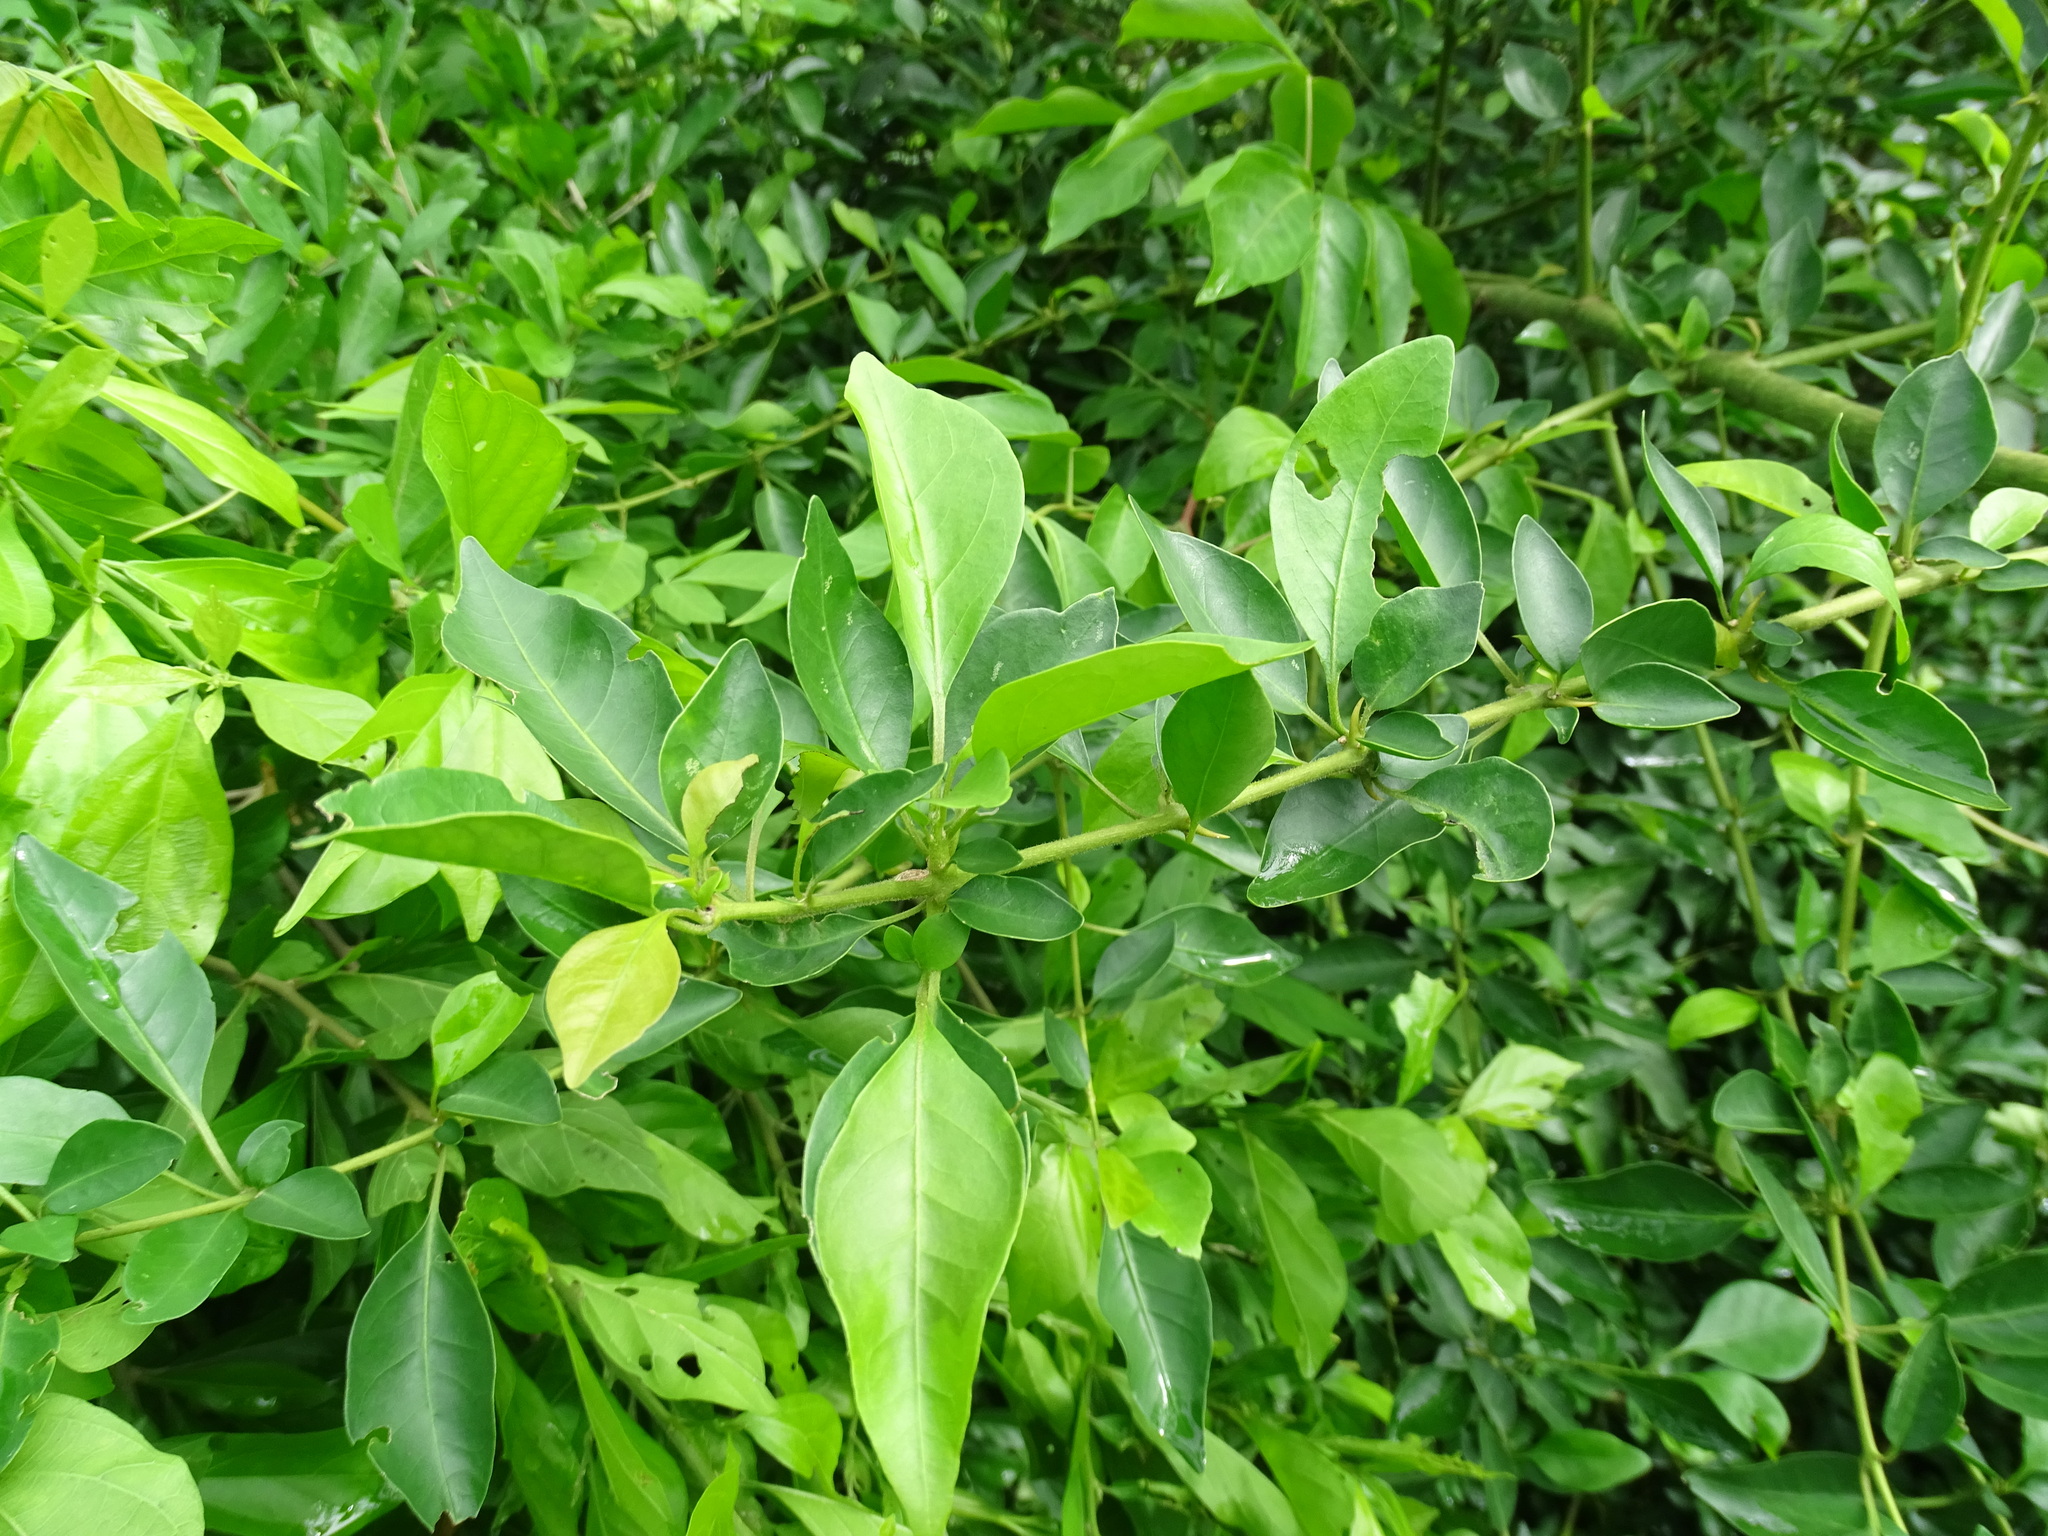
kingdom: Plantae
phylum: Tracheophyta
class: Magnoliopsida
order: Caryophyllales
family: Nyctaginaceae
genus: Pisonia
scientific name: Pisonia aculeata
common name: Cockspur vine
